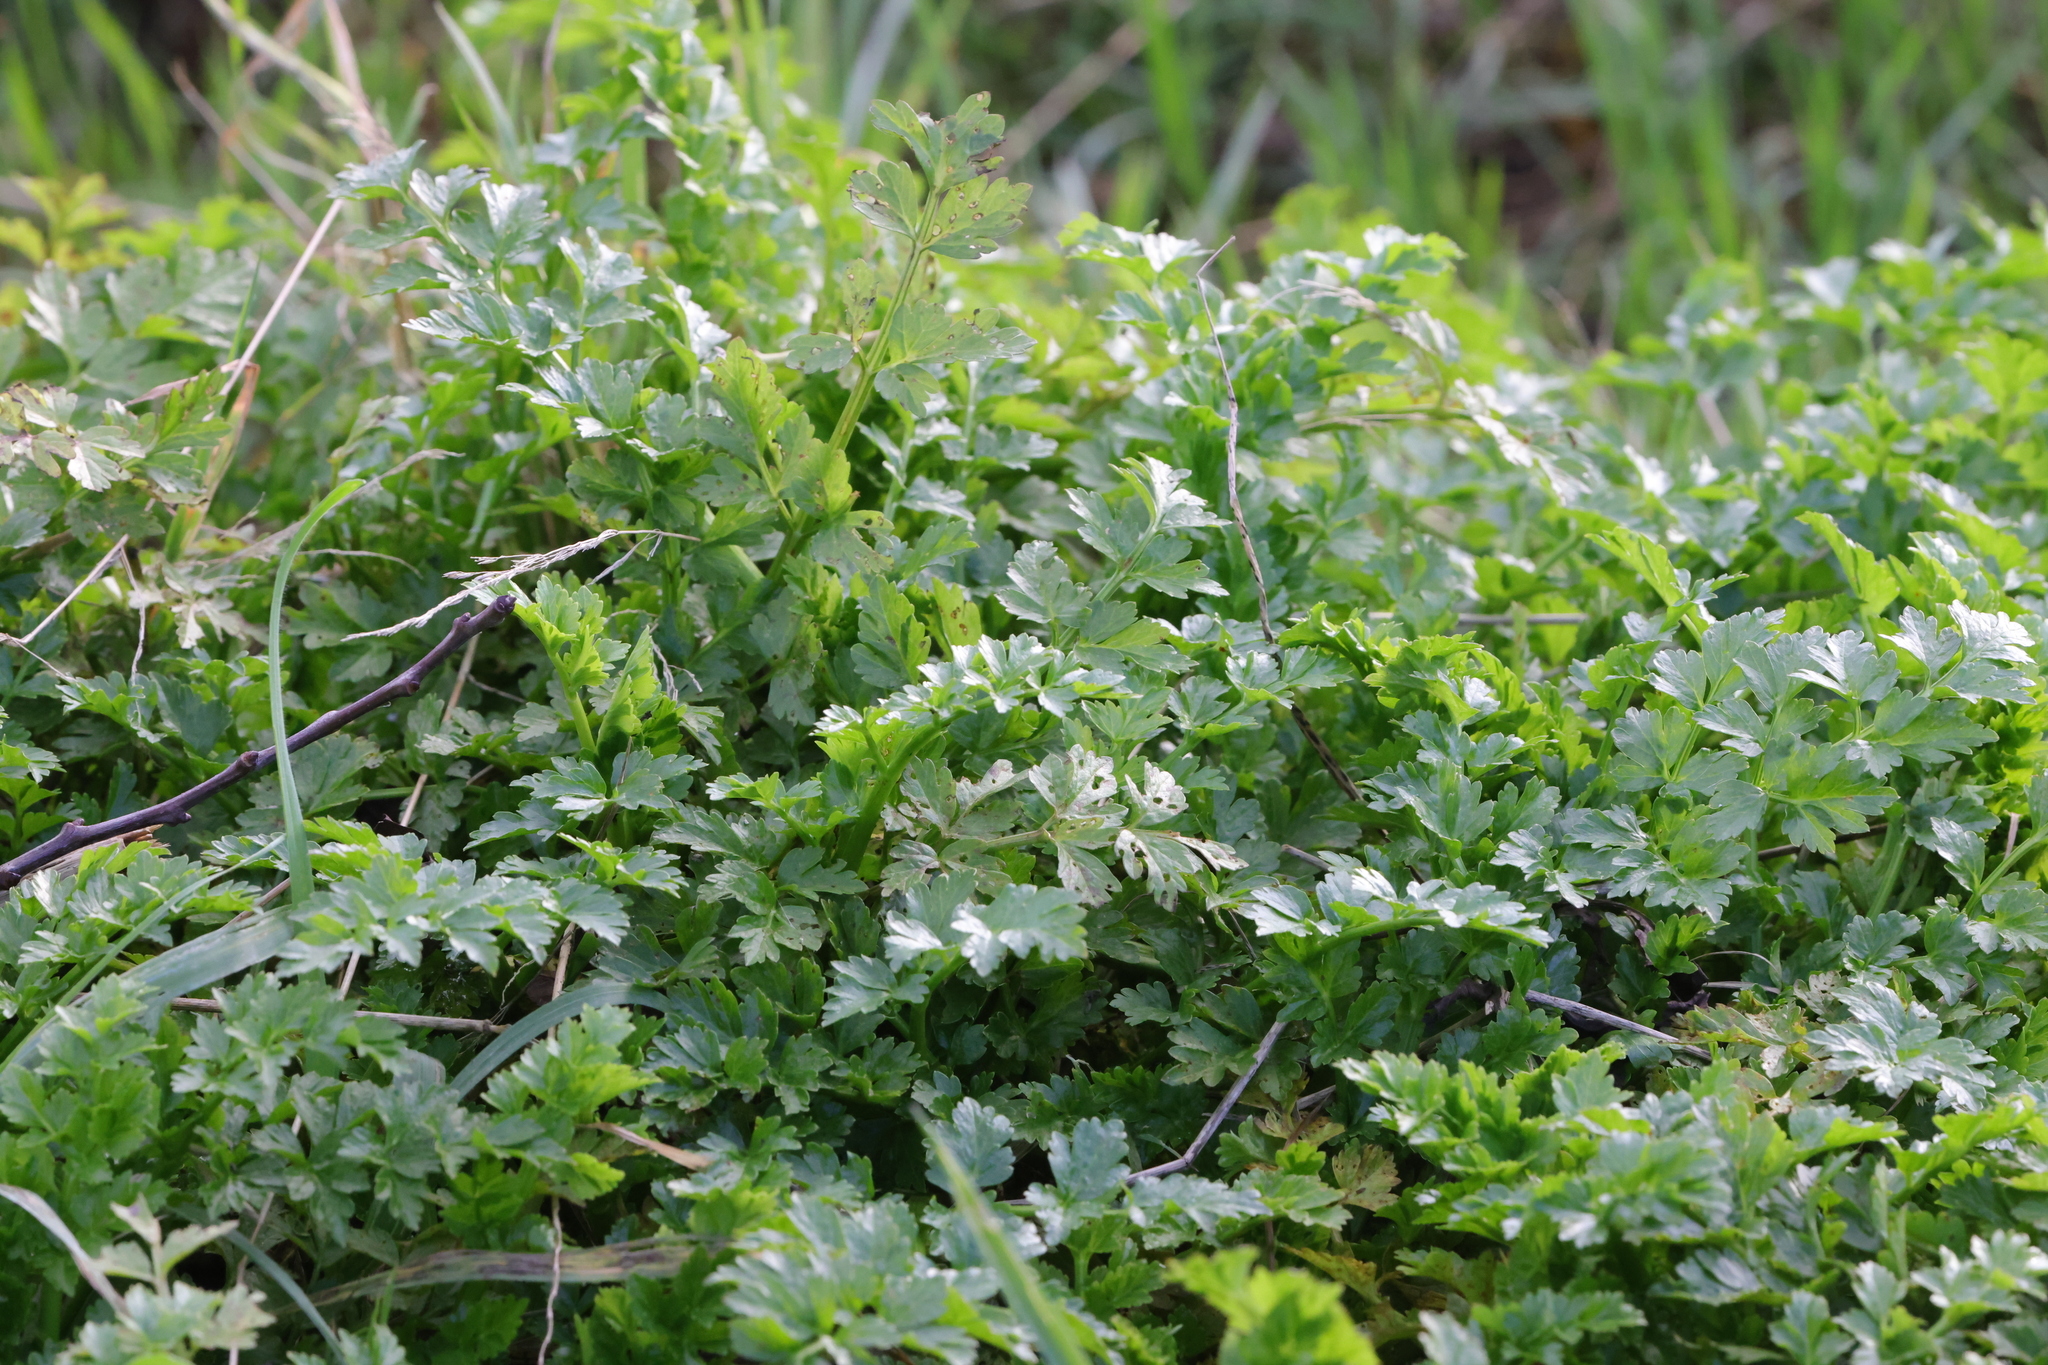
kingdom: Plantae
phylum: Tracheophyta
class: Magnoliopsida
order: Apiales
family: Apiaceae
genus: Oenanthe
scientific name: Oenanthe crocata
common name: Hemlock water-dropwort
